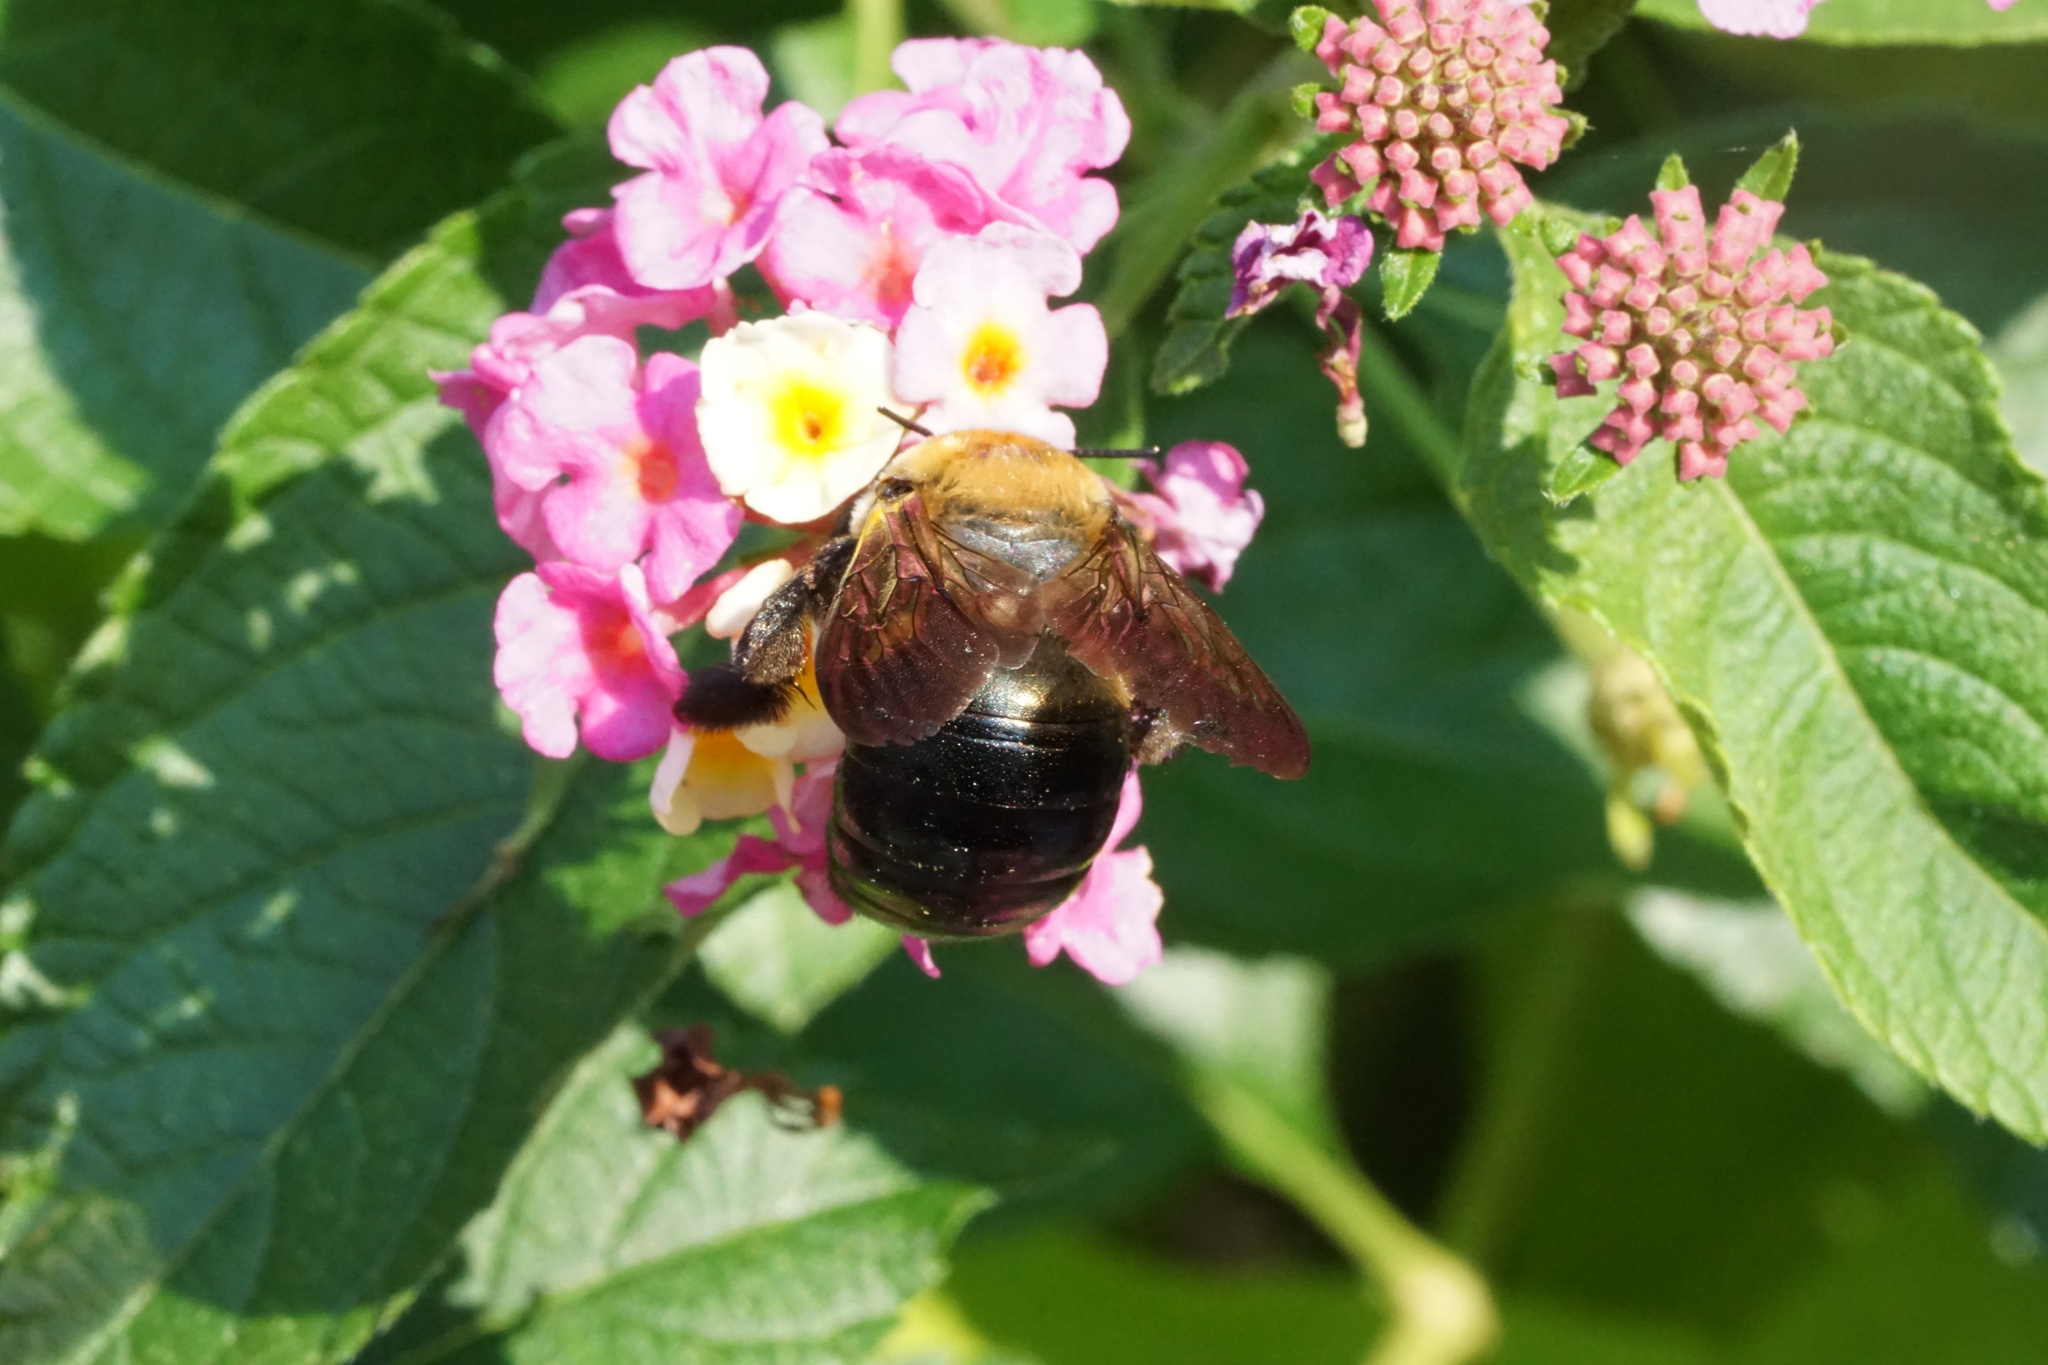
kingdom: Animalia
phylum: Arthropoda
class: Insecta
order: Hymenoptera
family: Apidae
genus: Xylocopa
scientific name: Xylocopa virginica
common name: Carpenter bee
